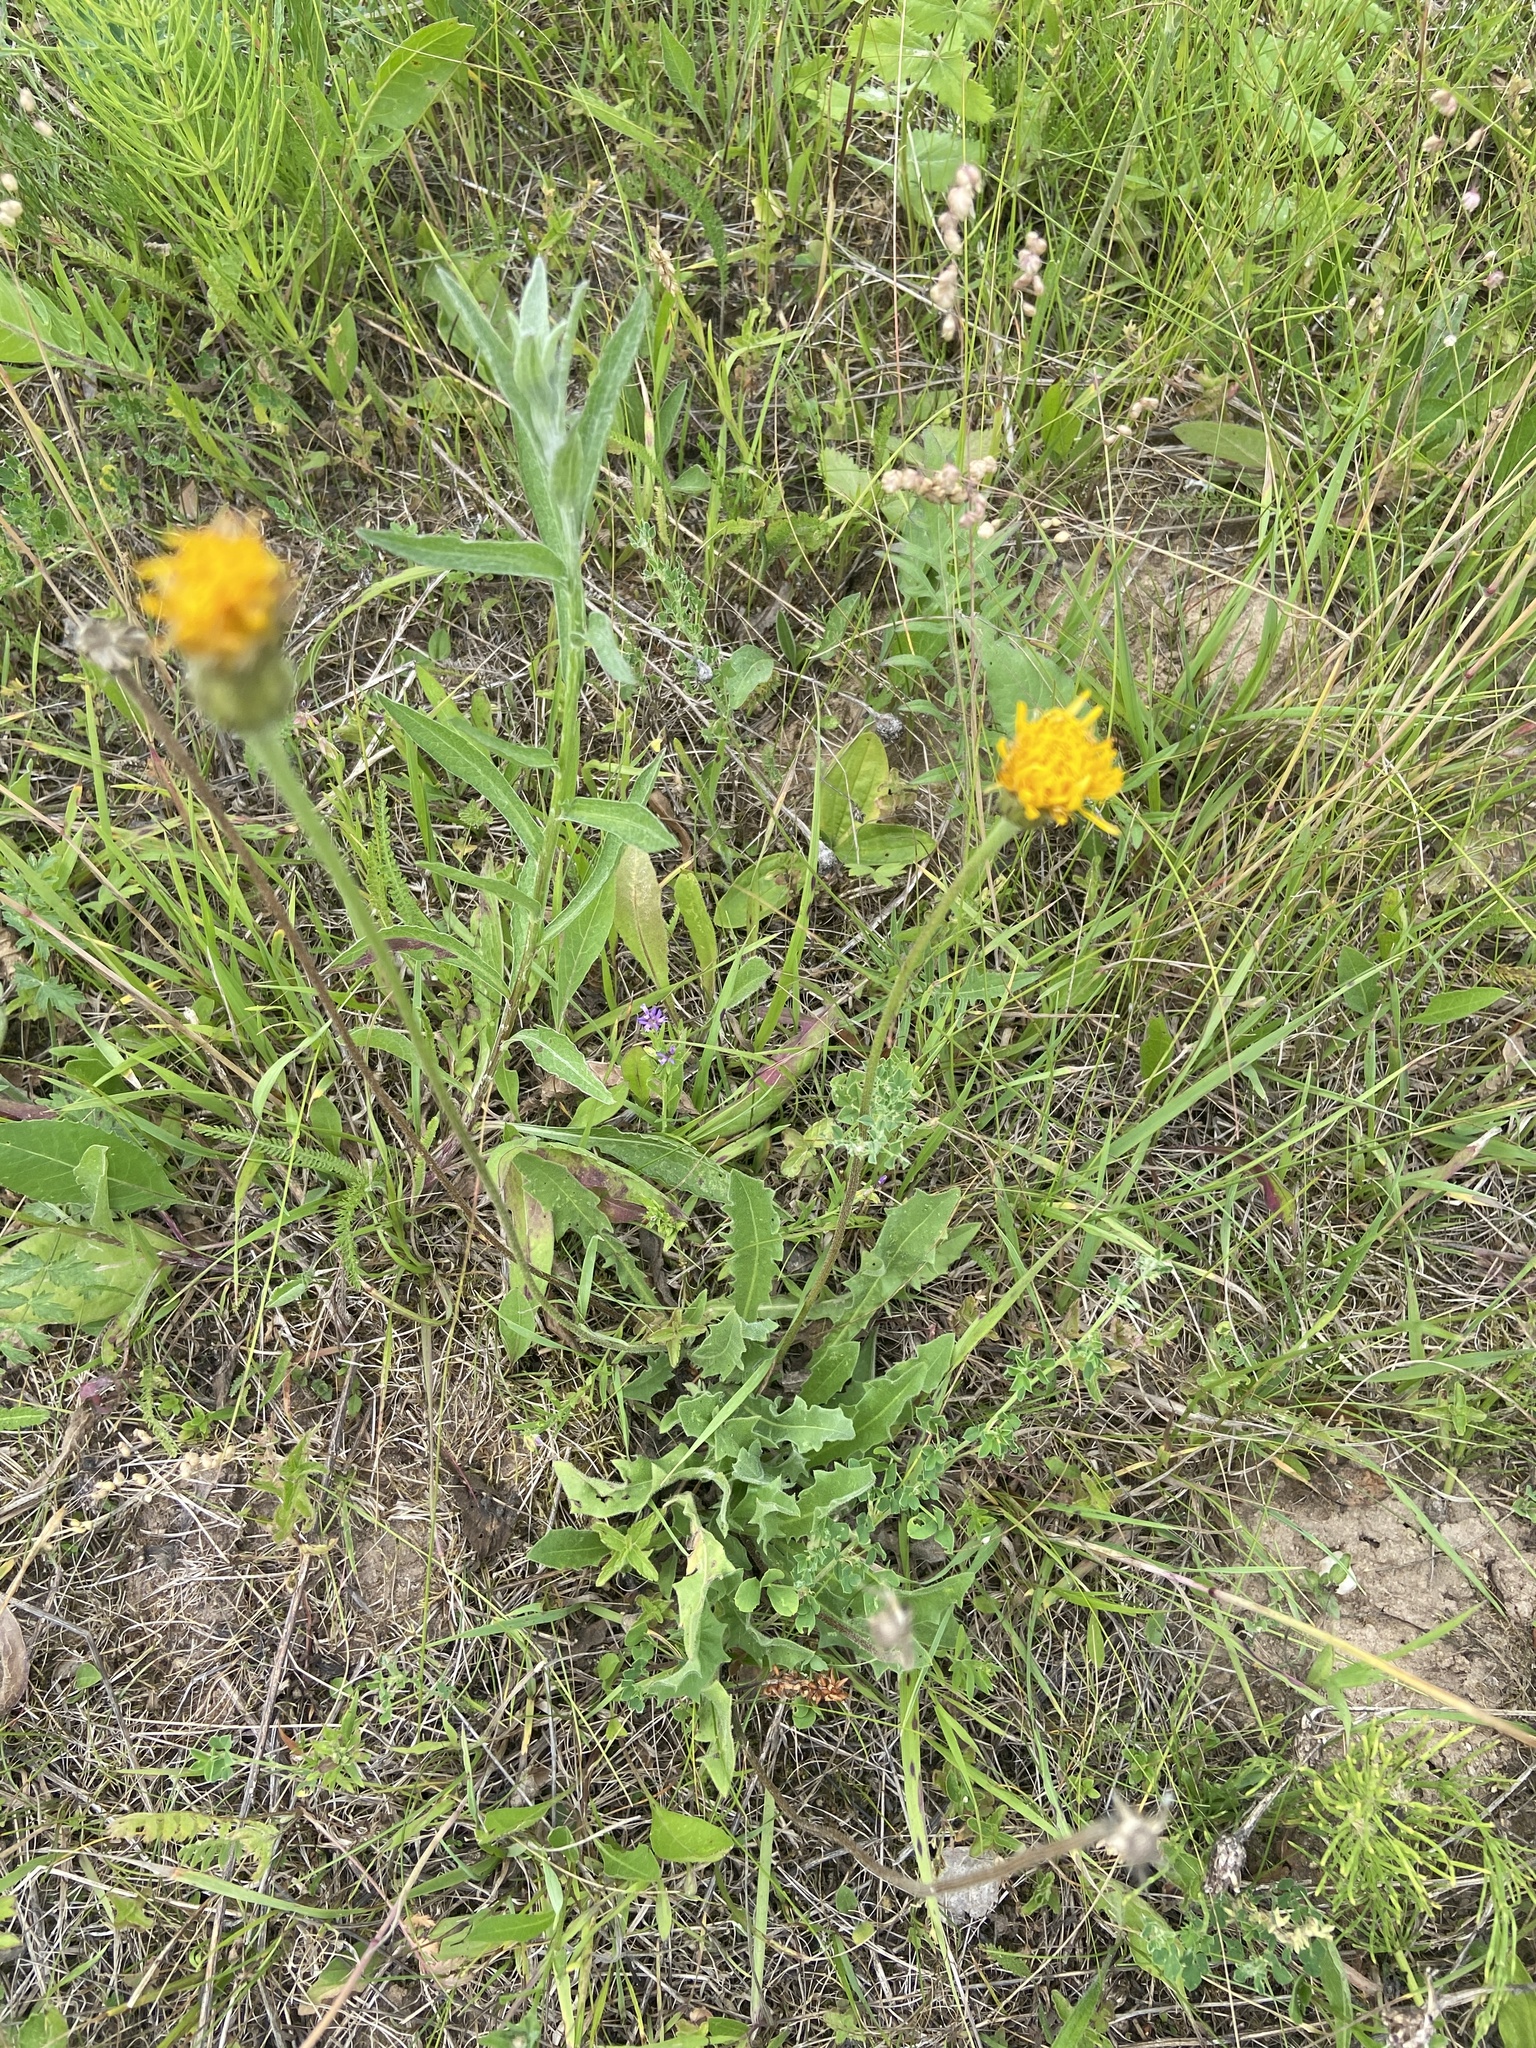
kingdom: Plantae
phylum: Tracheophyta
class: Magnoliopsida
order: Asterales
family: Asteraceae
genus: Leontodon
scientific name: Leontodon hispidus
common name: Rough hawkbit
